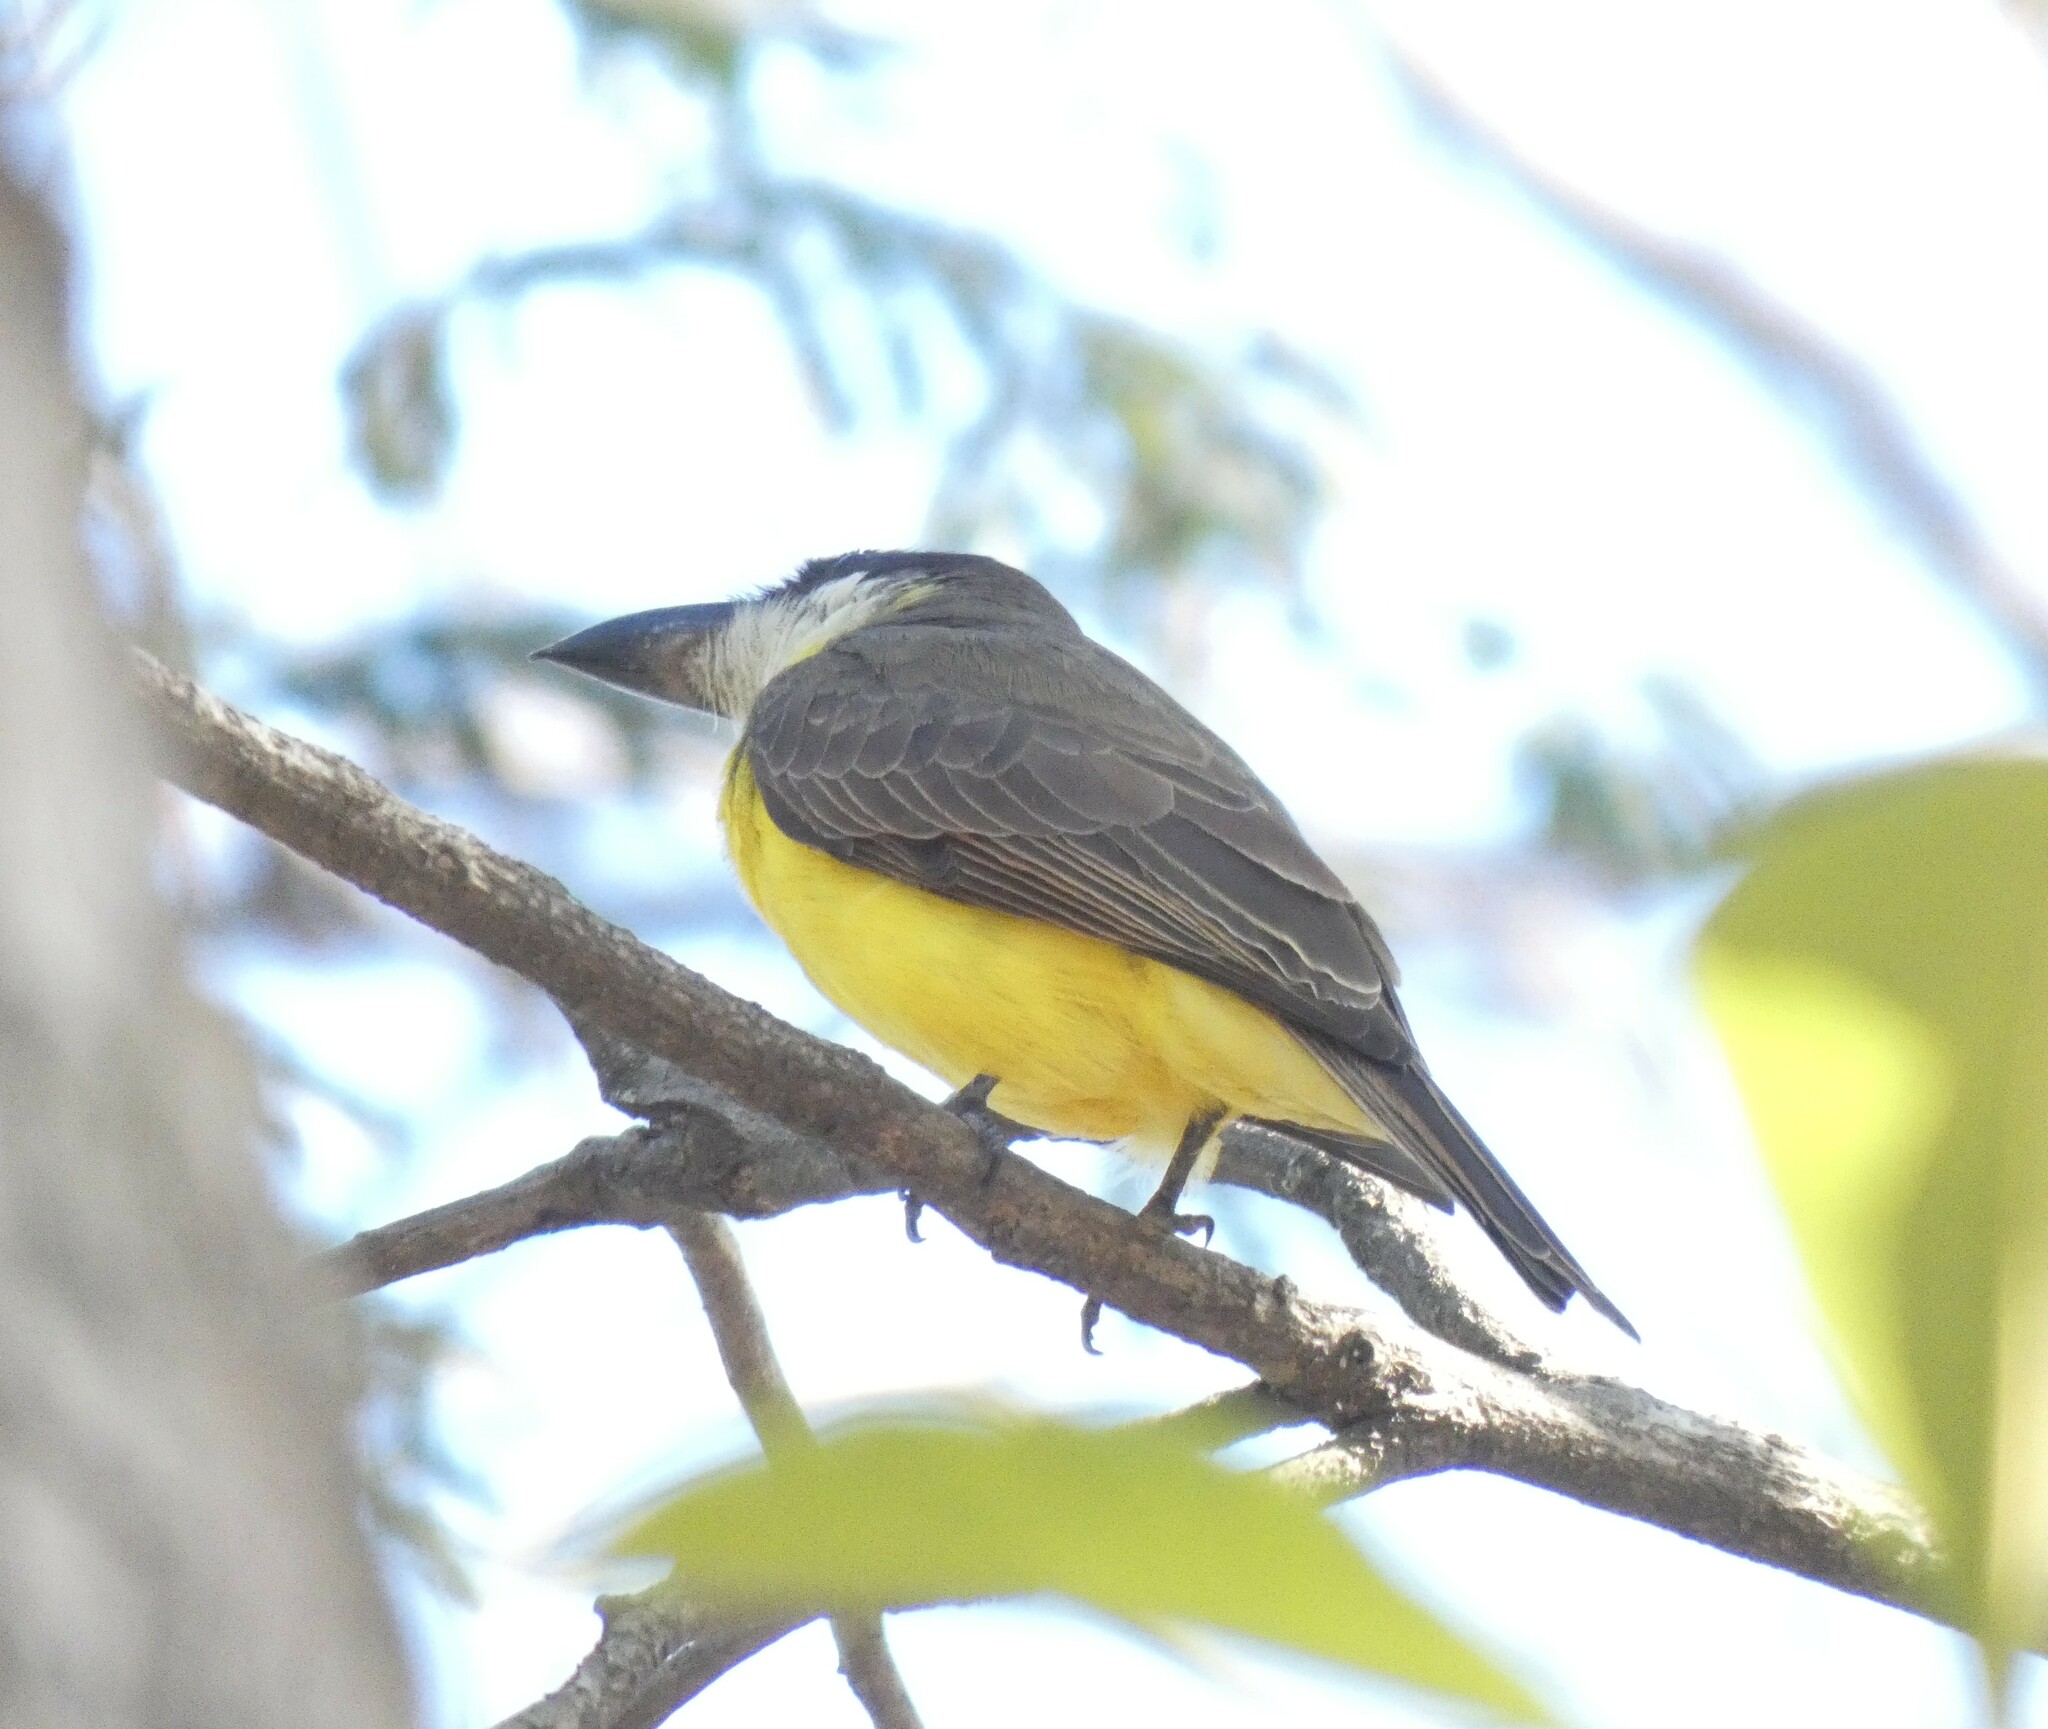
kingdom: Animalia
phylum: Chordata
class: Aves
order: Passeriformes
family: Tyrannidae
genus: Megarynchus
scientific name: Megarynchus pitangua
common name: Boat-billed flycatcher
